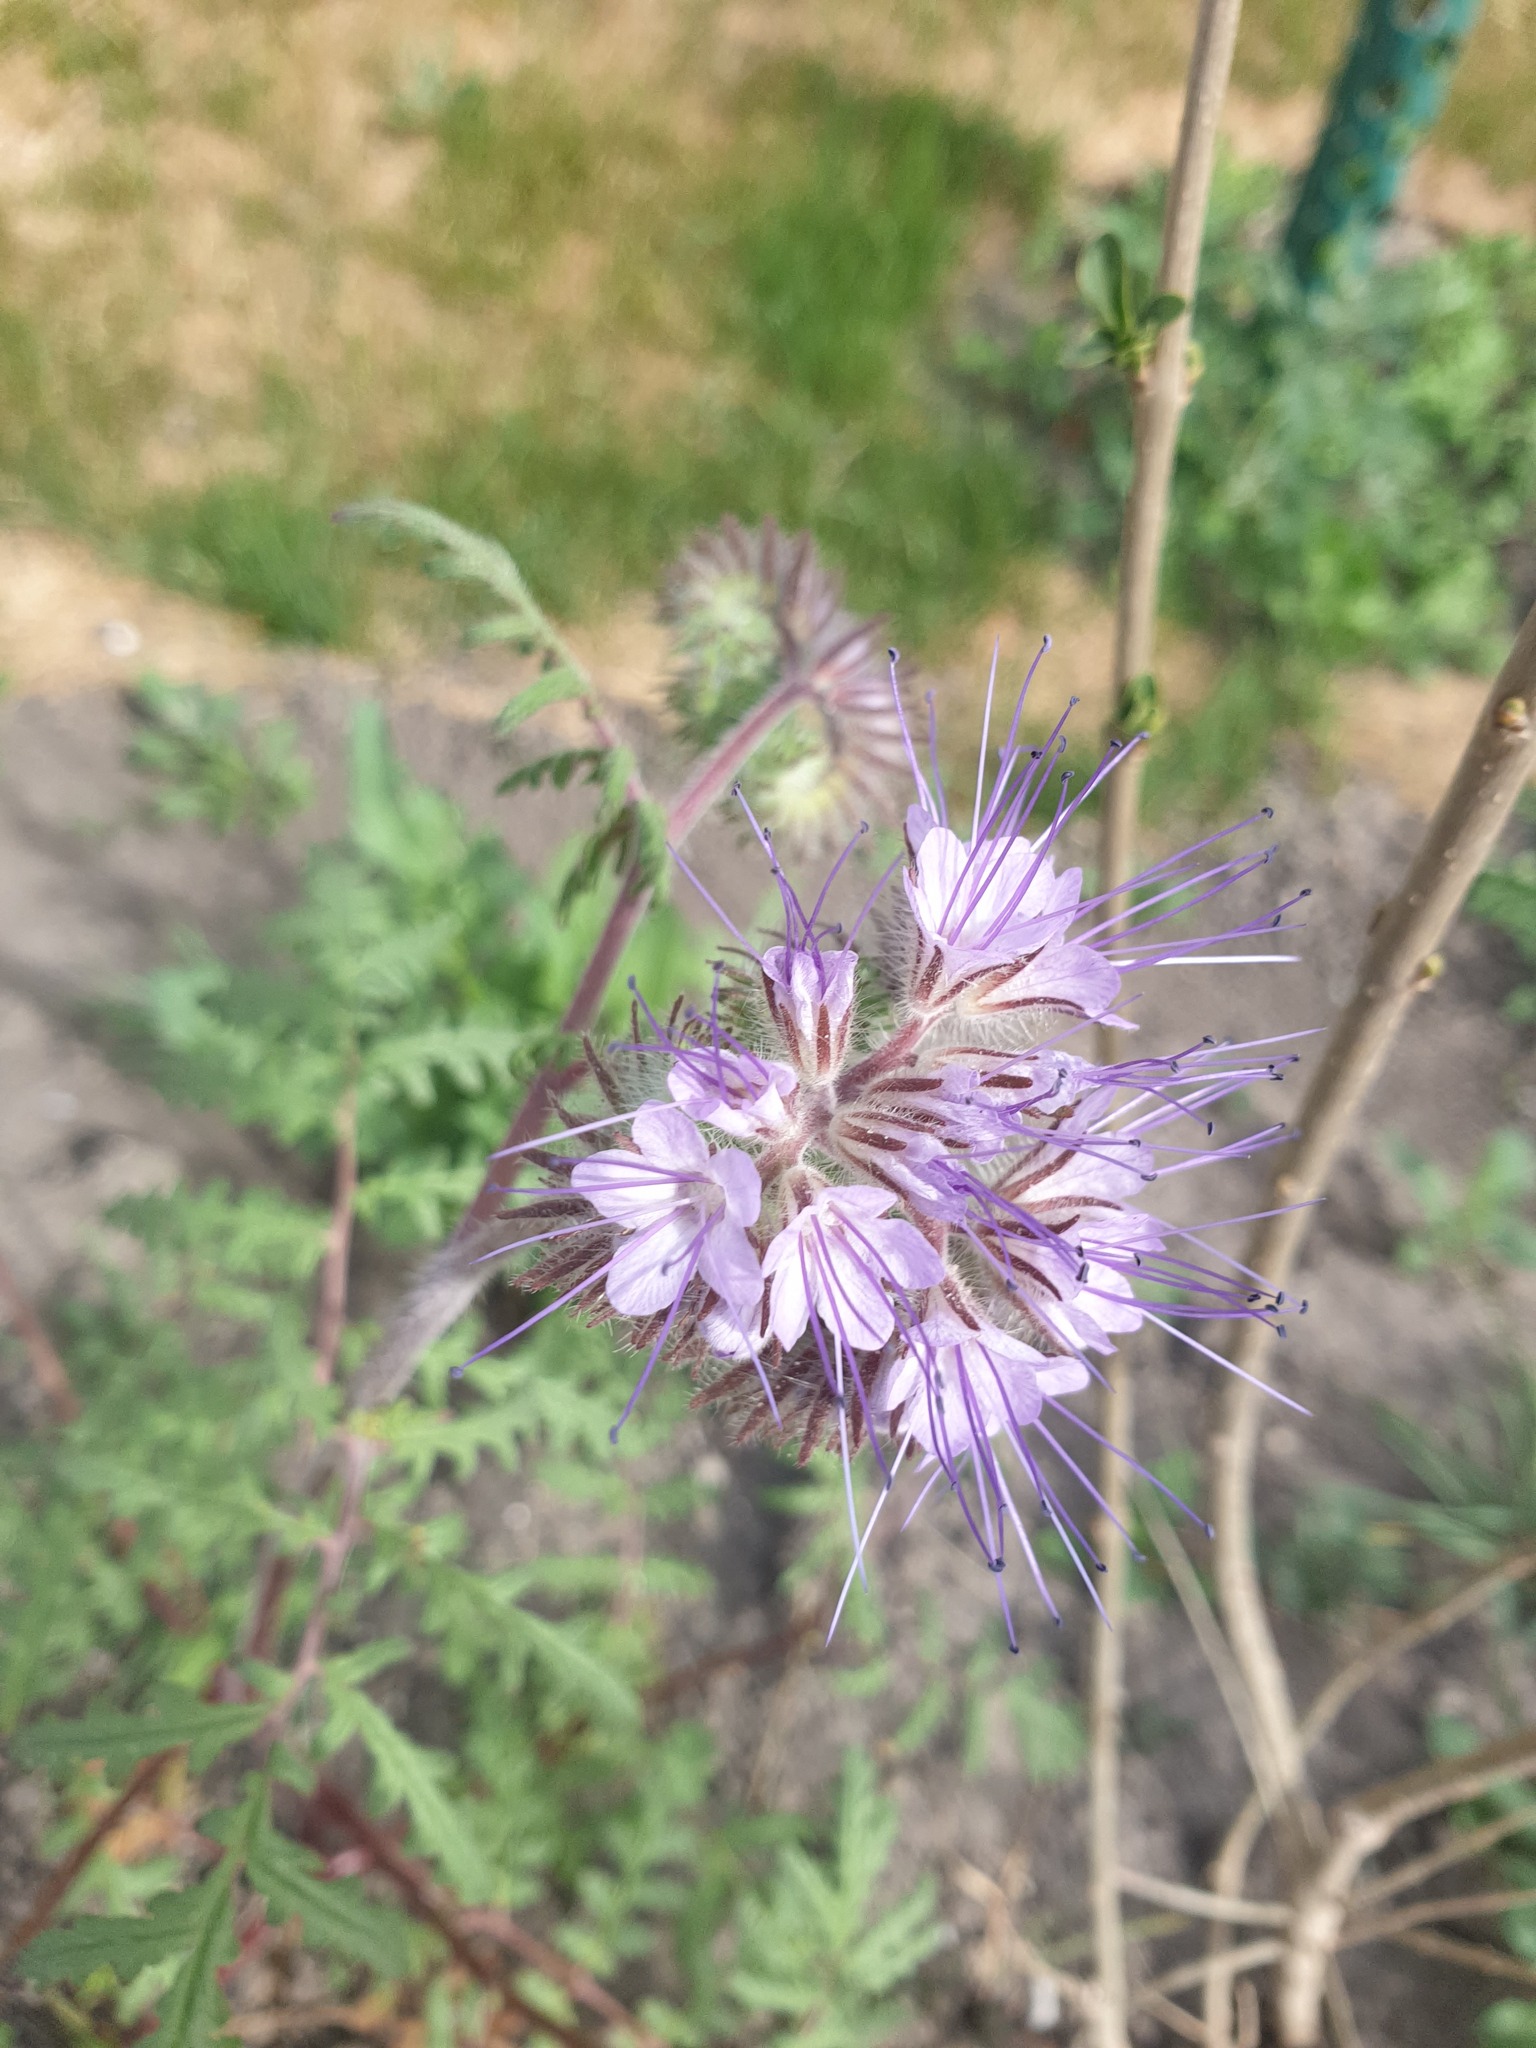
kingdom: Plantae
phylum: Tracheophyta
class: Magnoliopsida
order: Boraginales
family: Hydrophyllaceae
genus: Phacelia
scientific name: Phacelia tanacetifolia
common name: Phacelia
